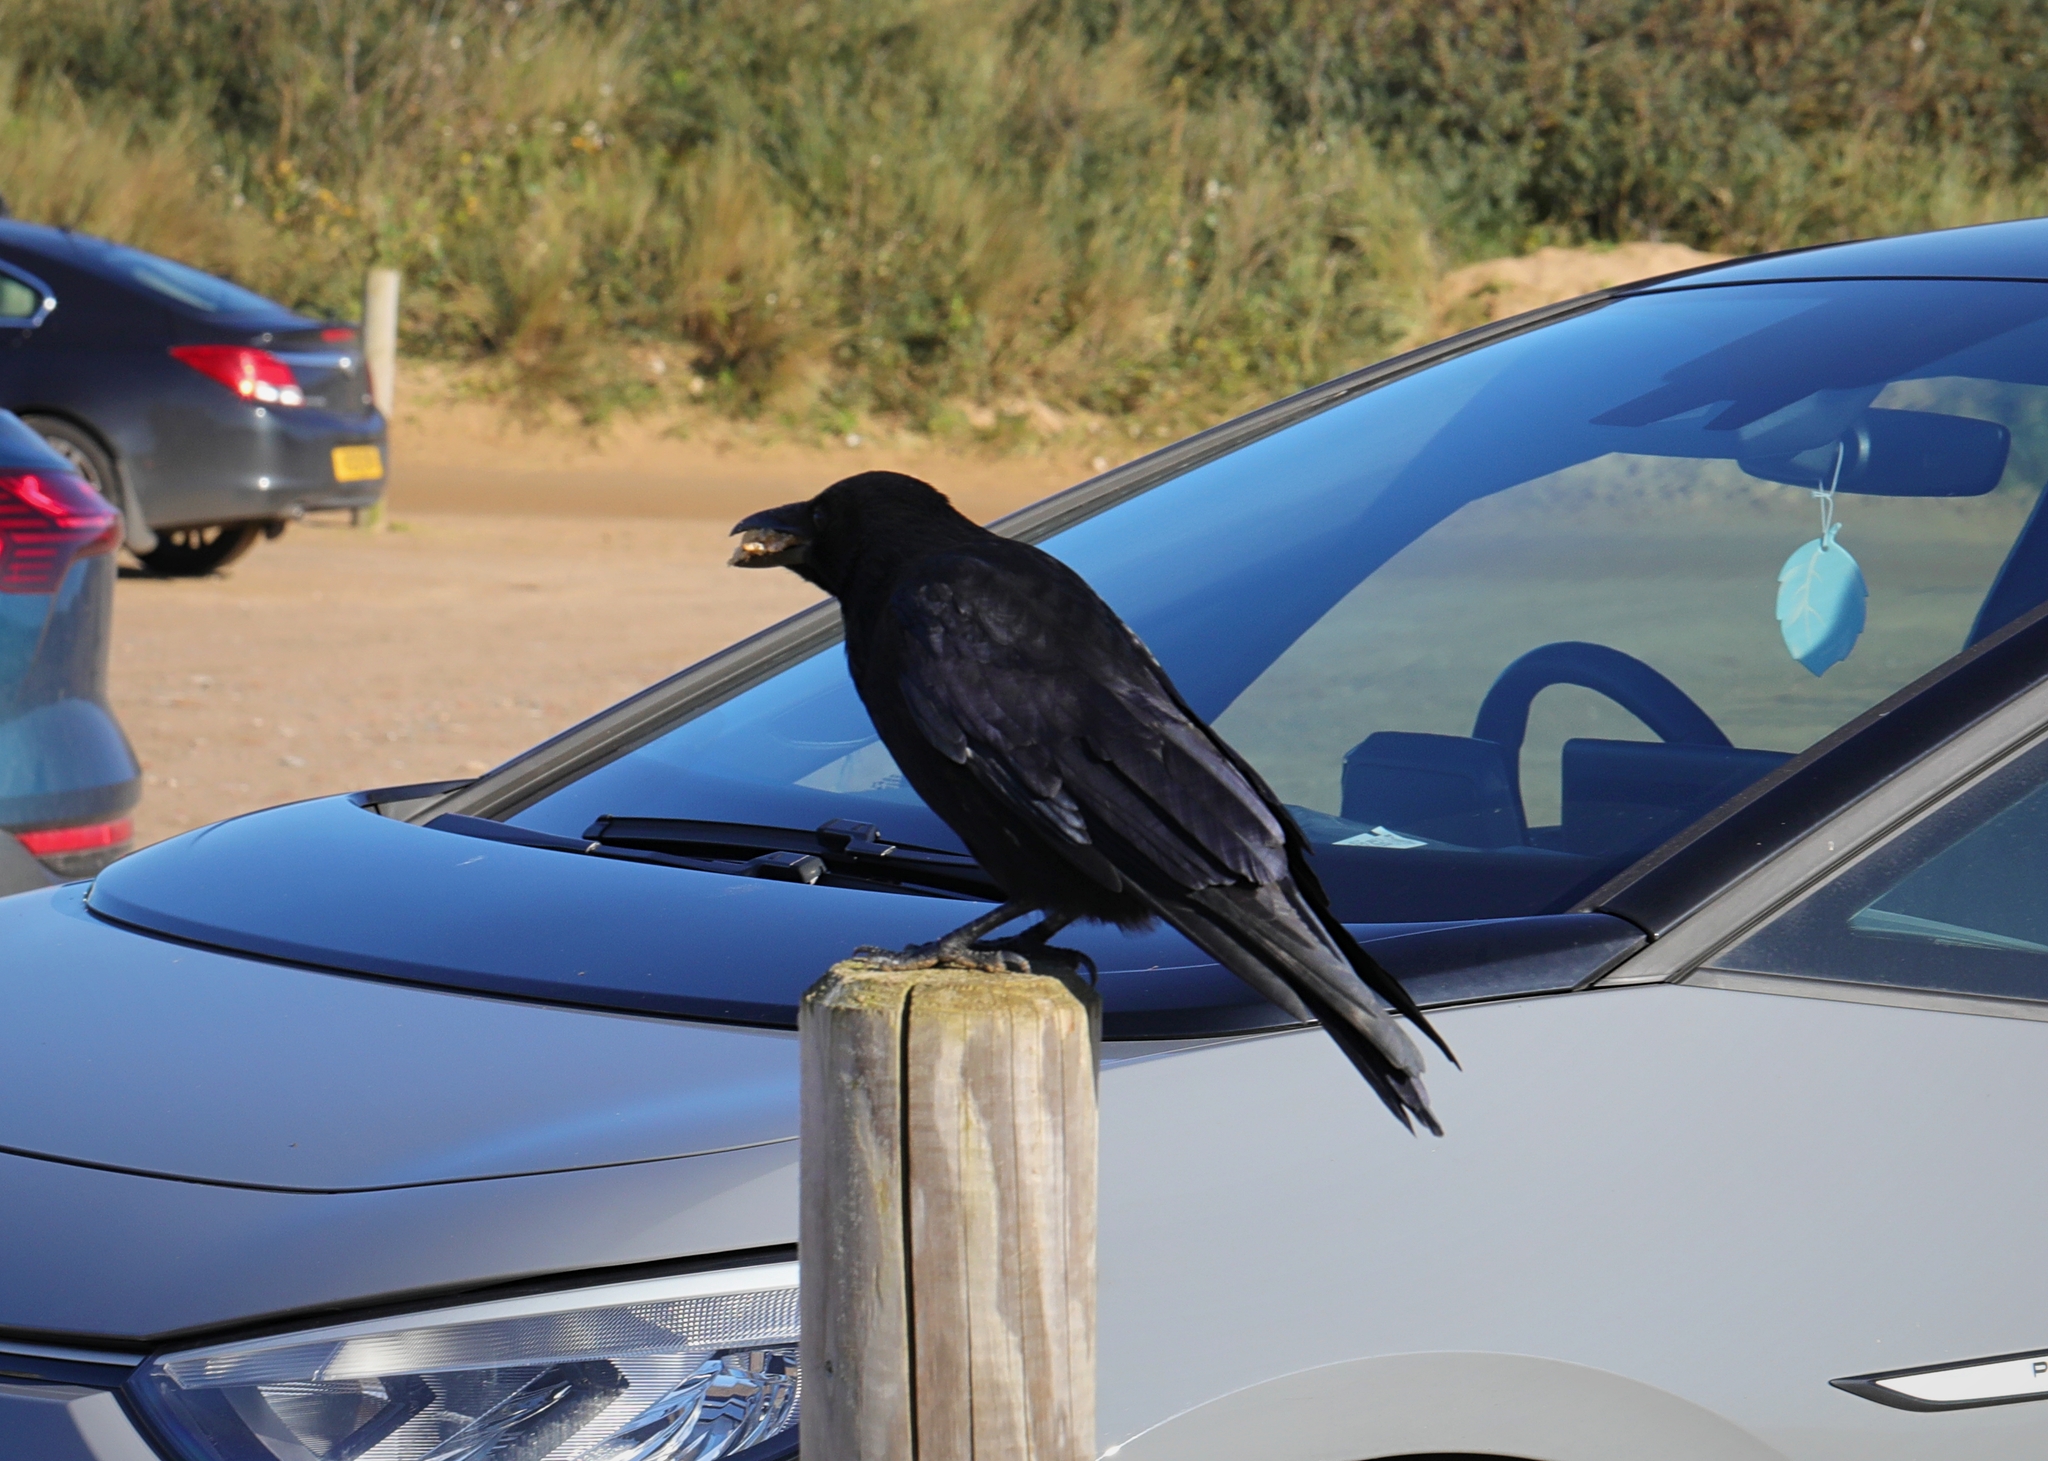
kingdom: Animalia
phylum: Chordata
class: Aves
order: Passeriformes
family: Corvidae
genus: Corvus
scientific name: Corvus corone
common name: Carrion crow
